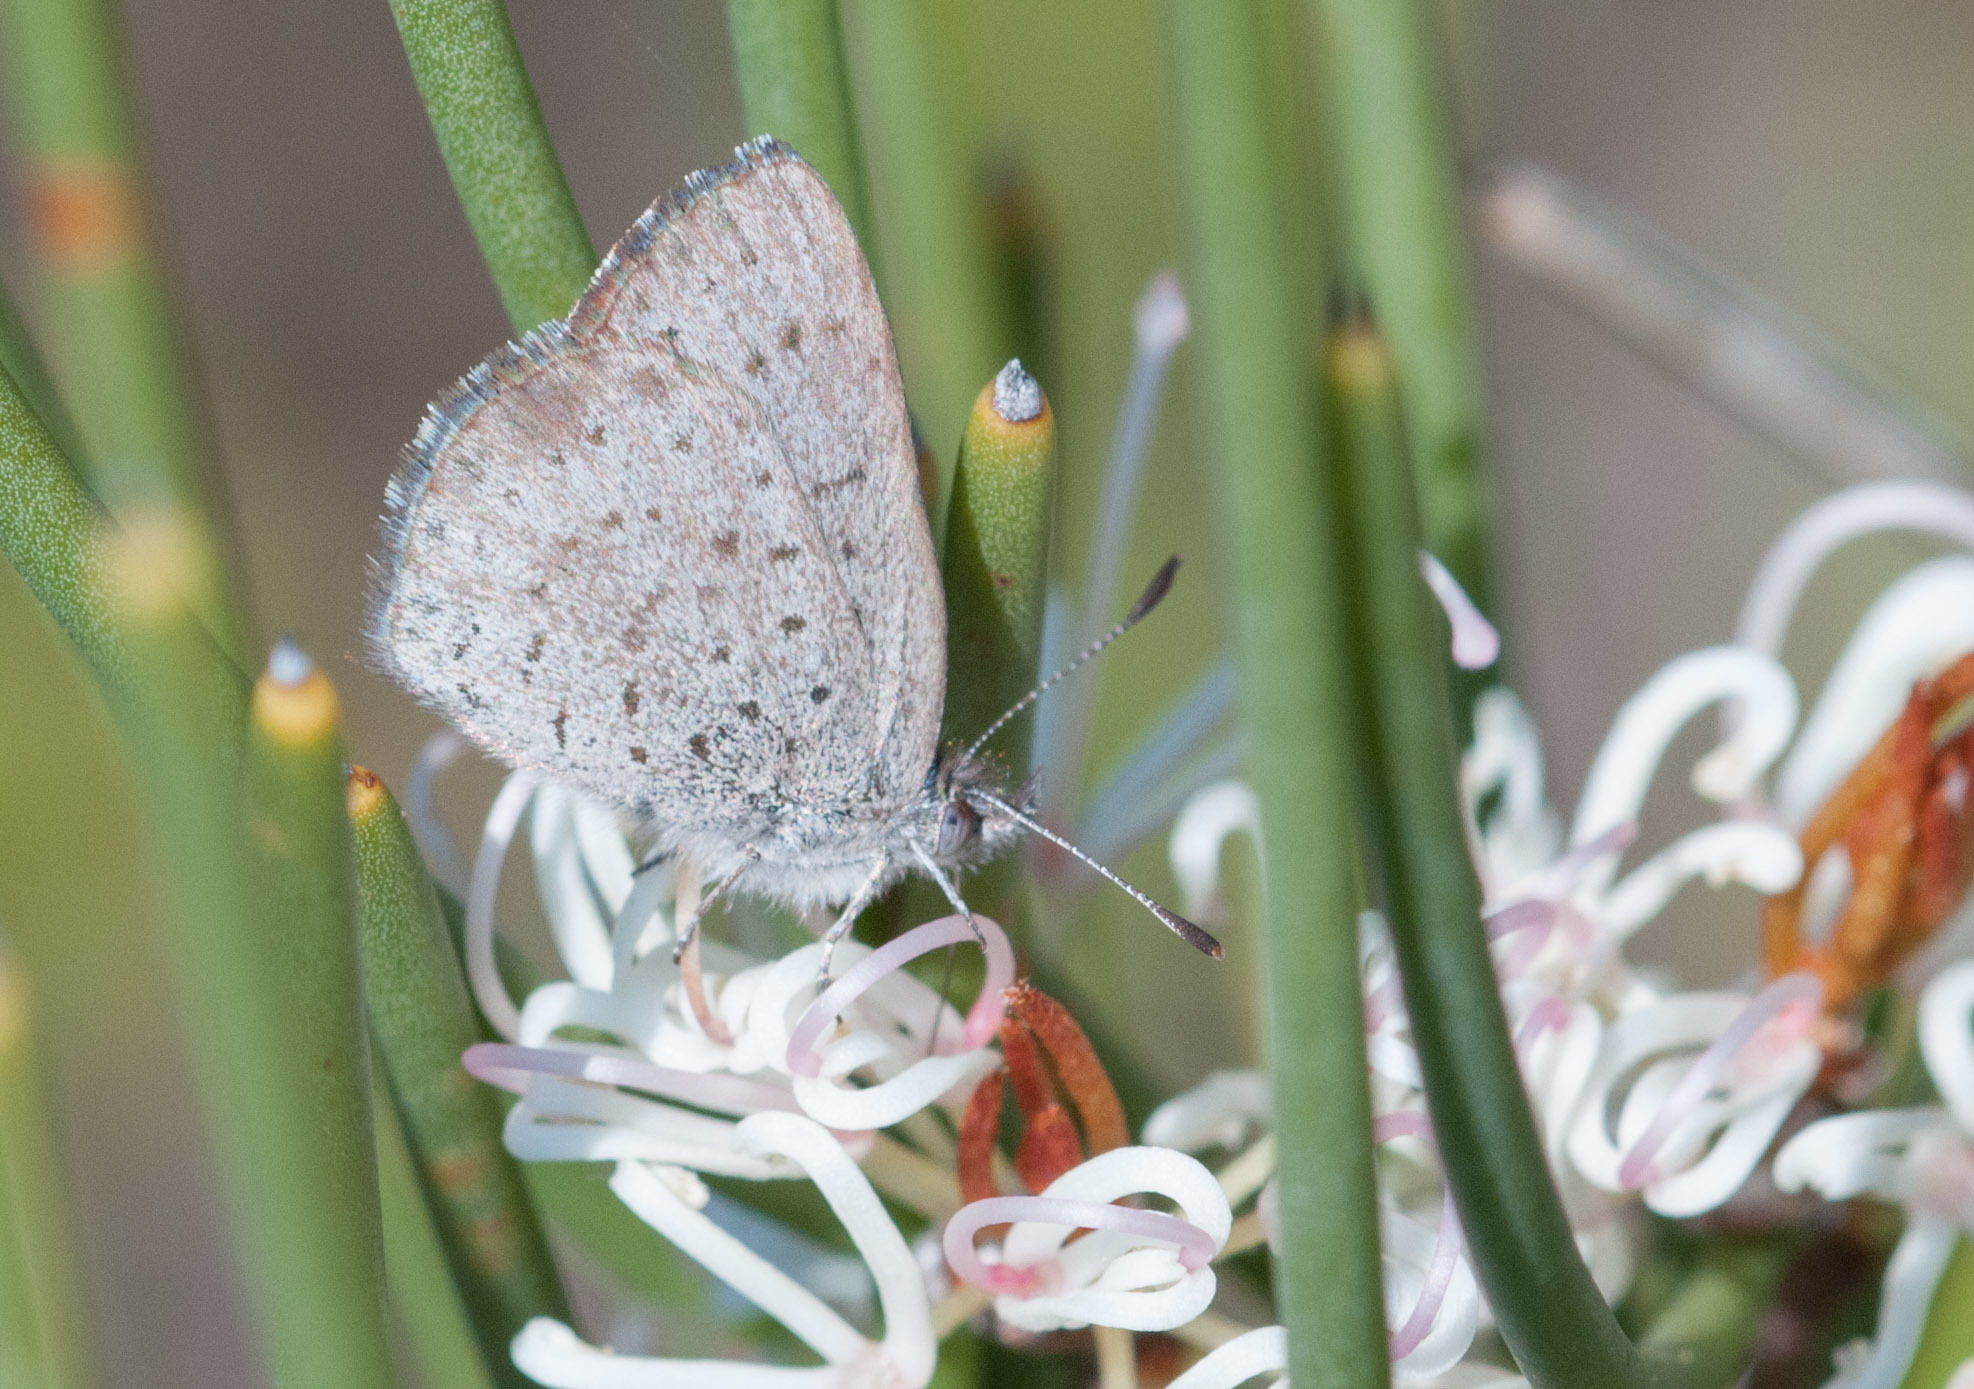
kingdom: Animalia
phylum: Arthropoda
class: Insecta
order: Lepidoptera
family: Lycaenidae
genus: Candalides
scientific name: Candalides
